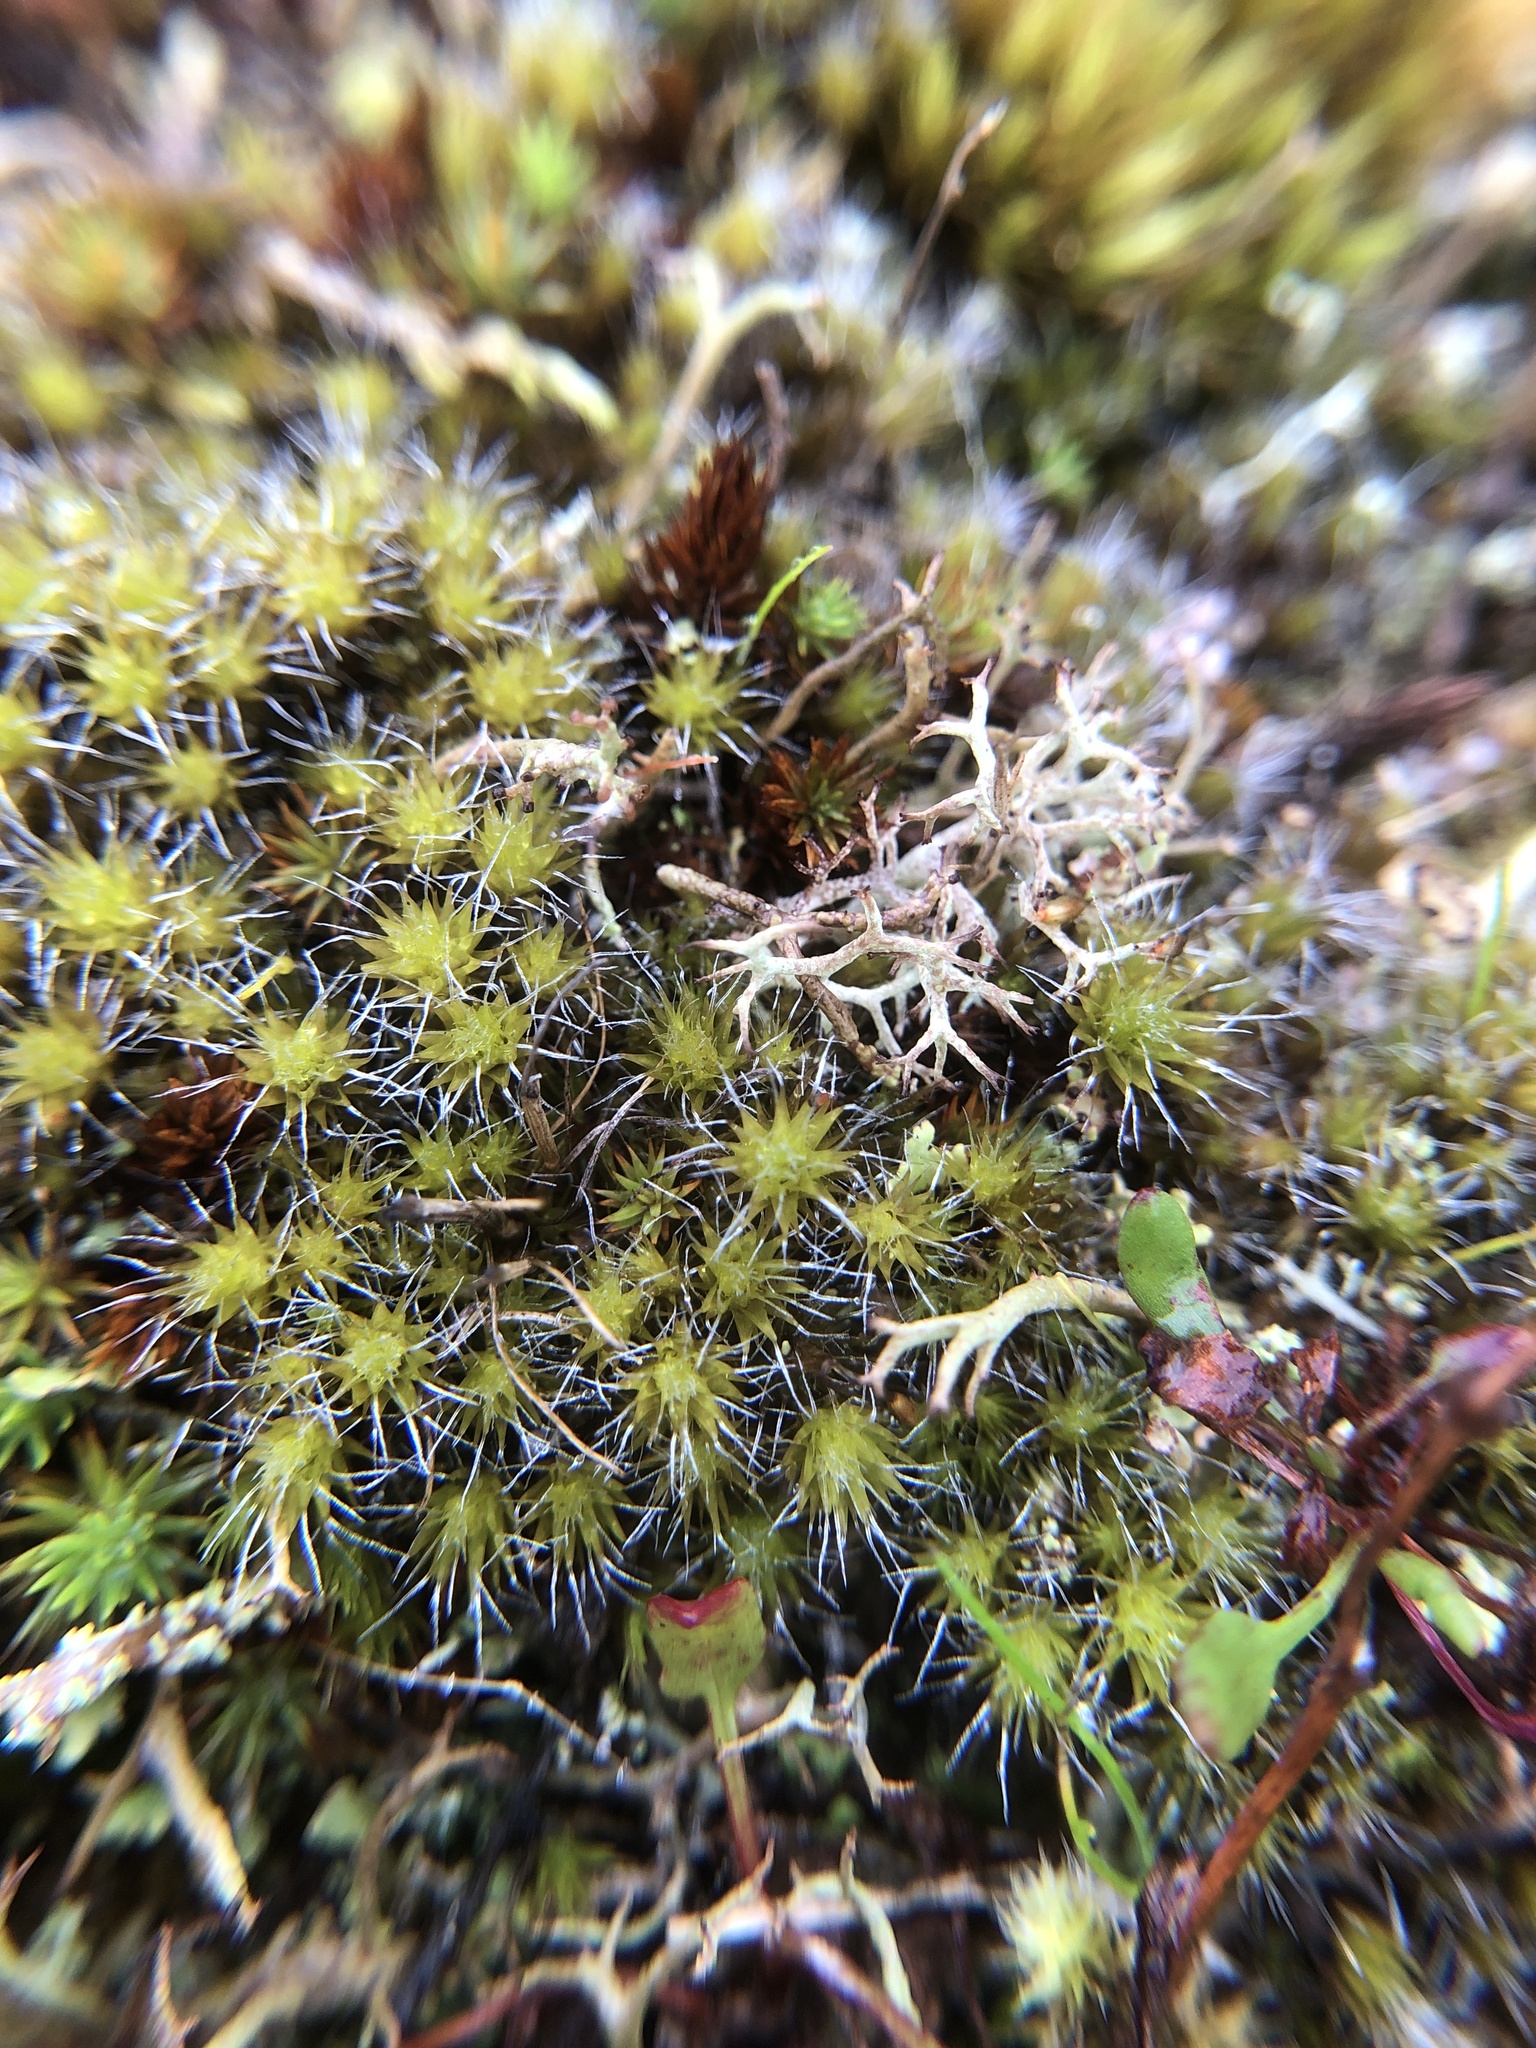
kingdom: Plantae
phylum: Bryophyta
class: Bryopsida
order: Dicranales
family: Leucobryaceae
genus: Campylopus
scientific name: Campylopus introflexus
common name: Heath star moss
